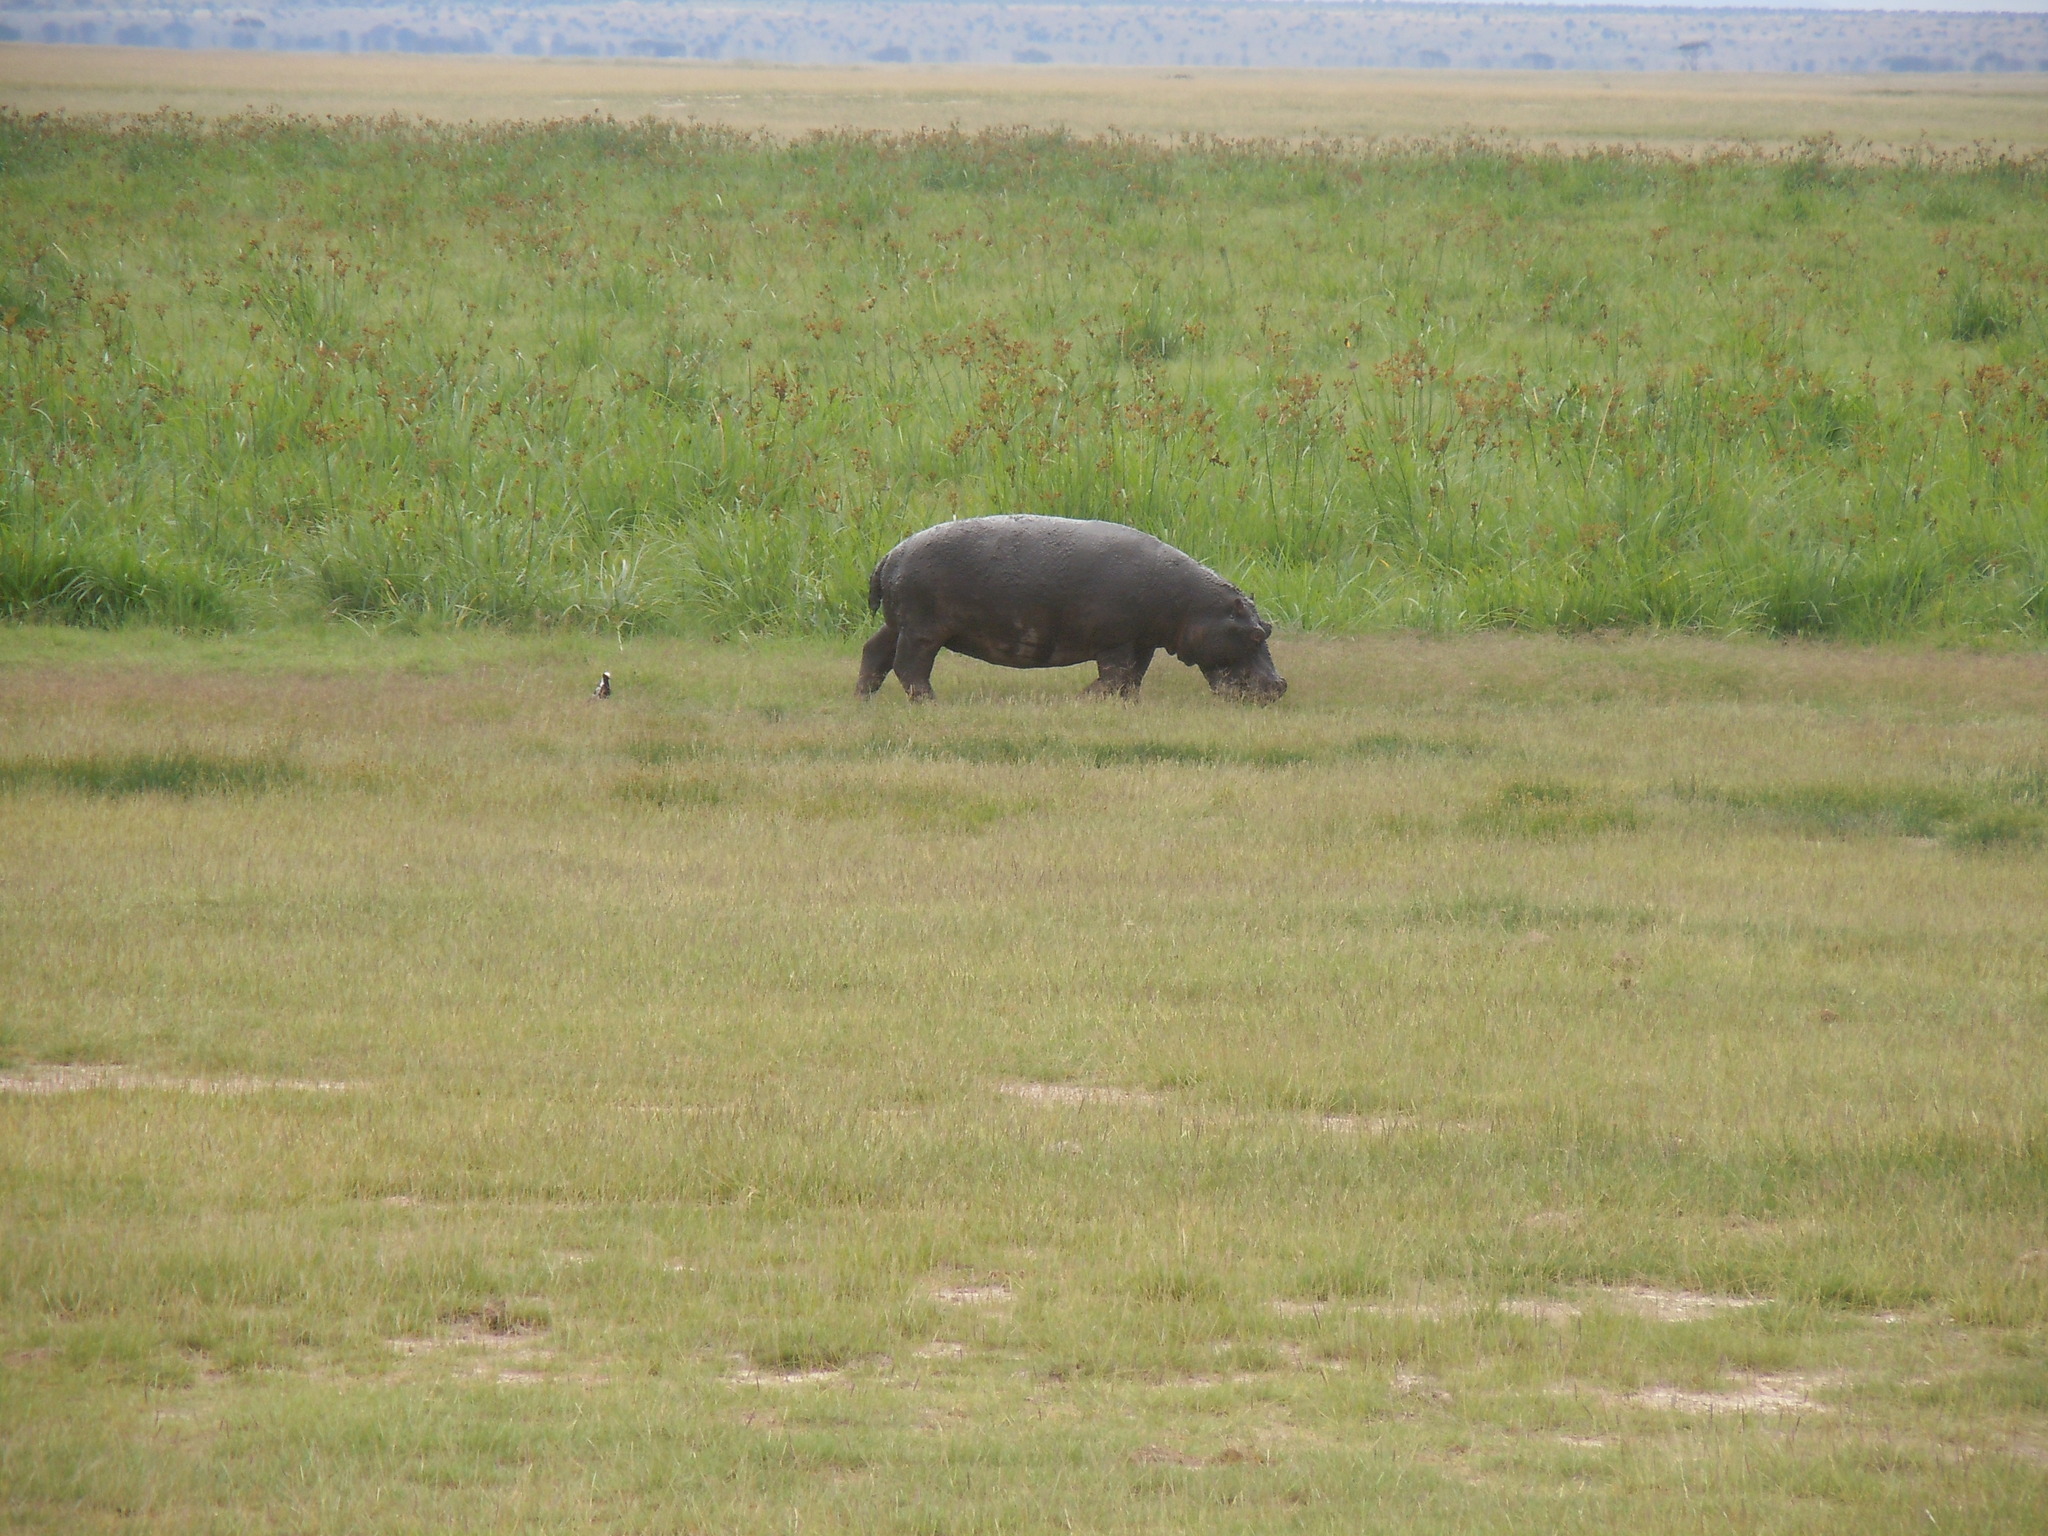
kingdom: Animalia
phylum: Chordata
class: Mammalia
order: Artiodactyla
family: Hippopotamidae
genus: Hippopotamus
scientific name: Hippopotamus amphibius
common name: Common hippopotamus
